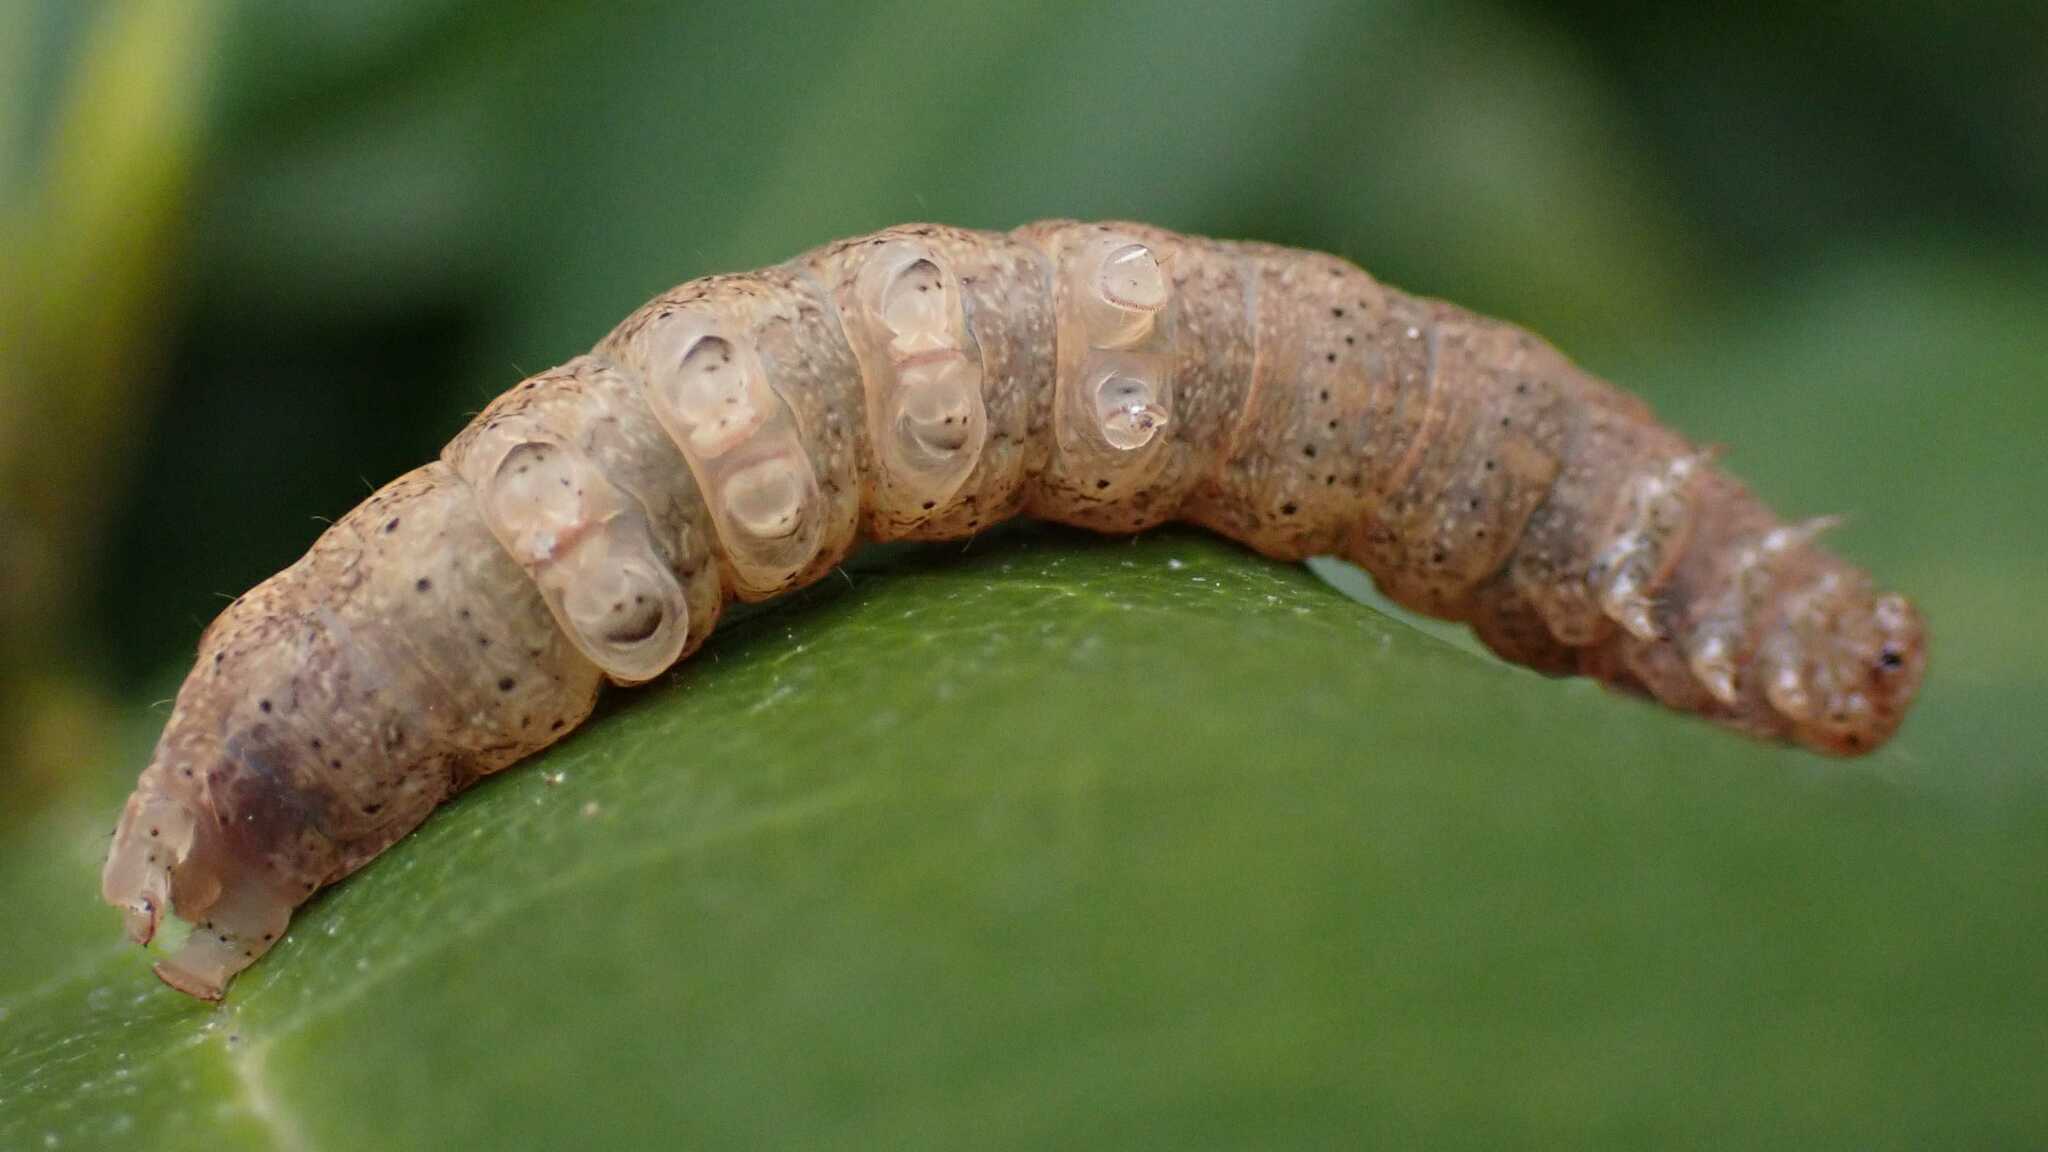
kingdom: Animalia
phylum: Arthropoda
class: Insecta
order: Lepidoptera
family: Noctuidae
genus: Noctua
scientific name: Noctua fimbriata
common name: Broad-bordered yellow underwing
